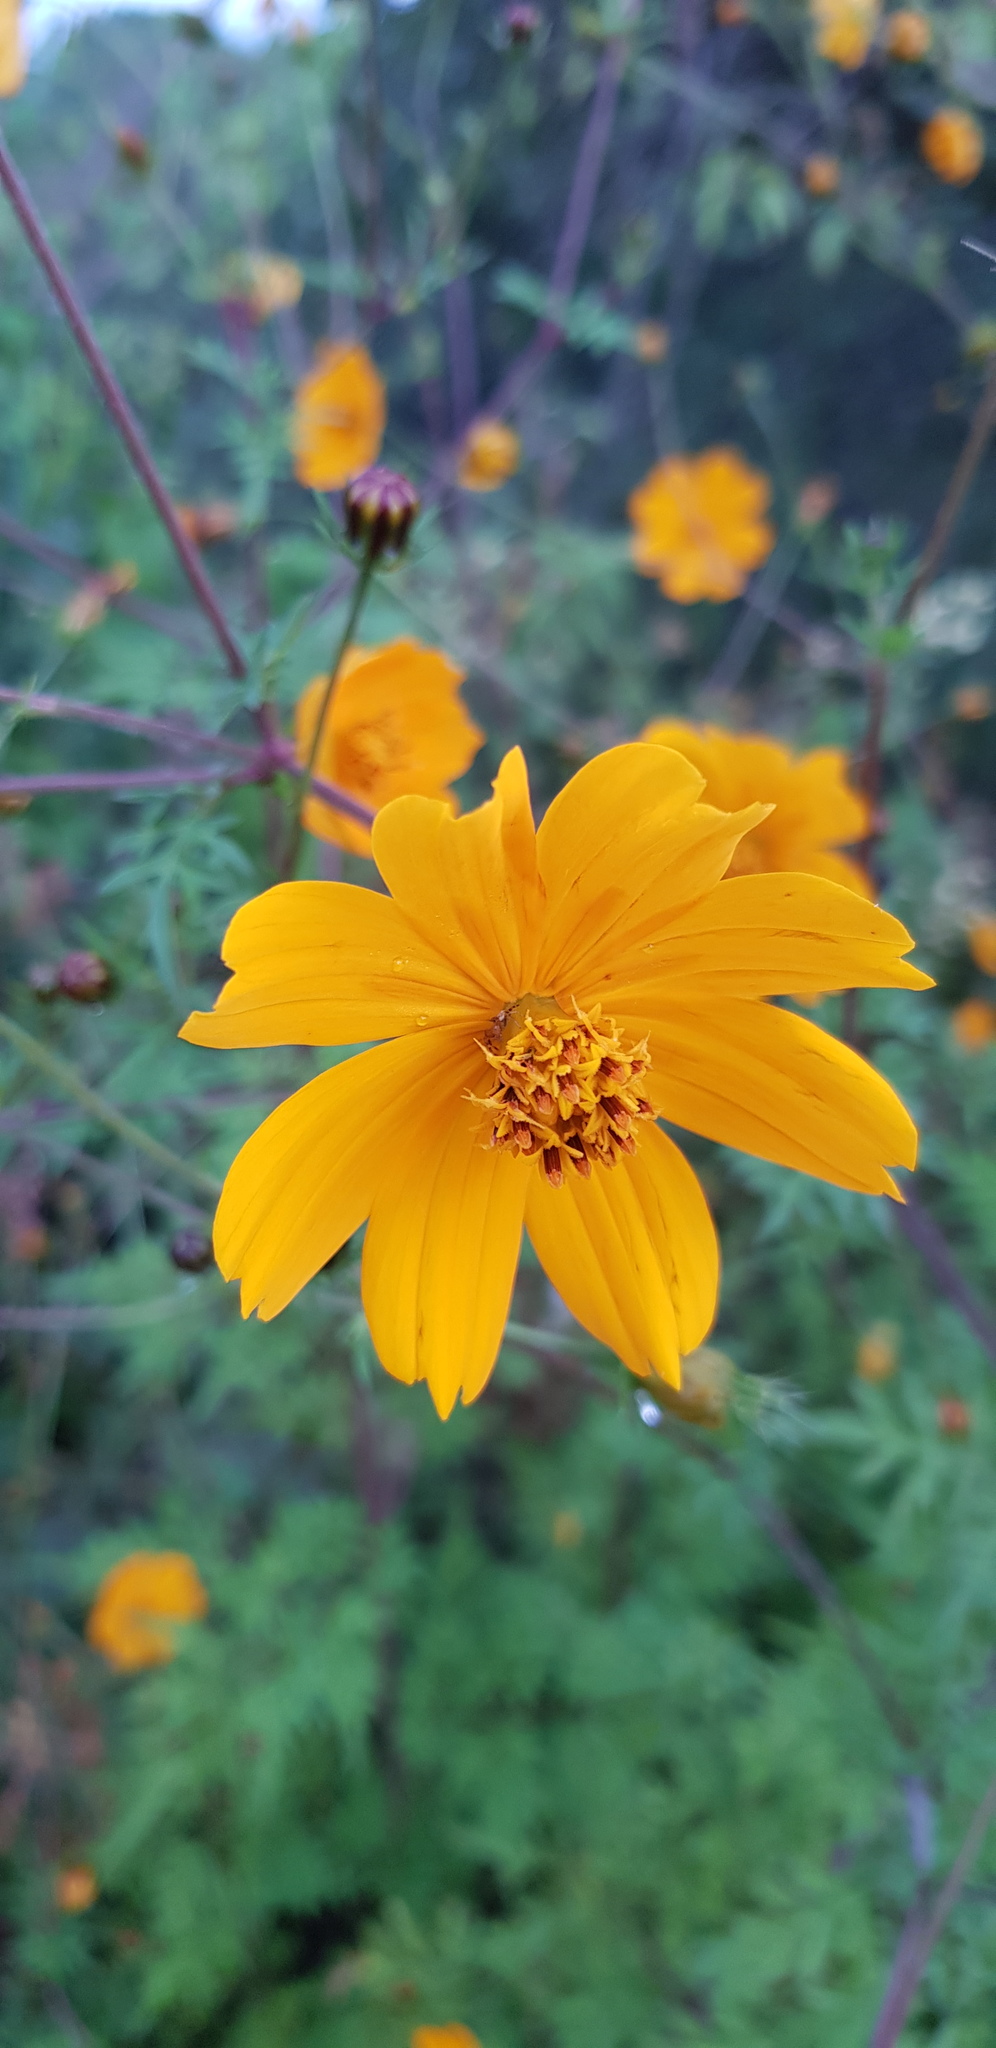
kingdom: Plantae
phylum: Tracheophyta
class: Magnoliopsida
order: Asterales
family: Asteraceae
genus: Cosmos
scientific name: Cosmos sulphureus
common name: Sulphur cosmos
